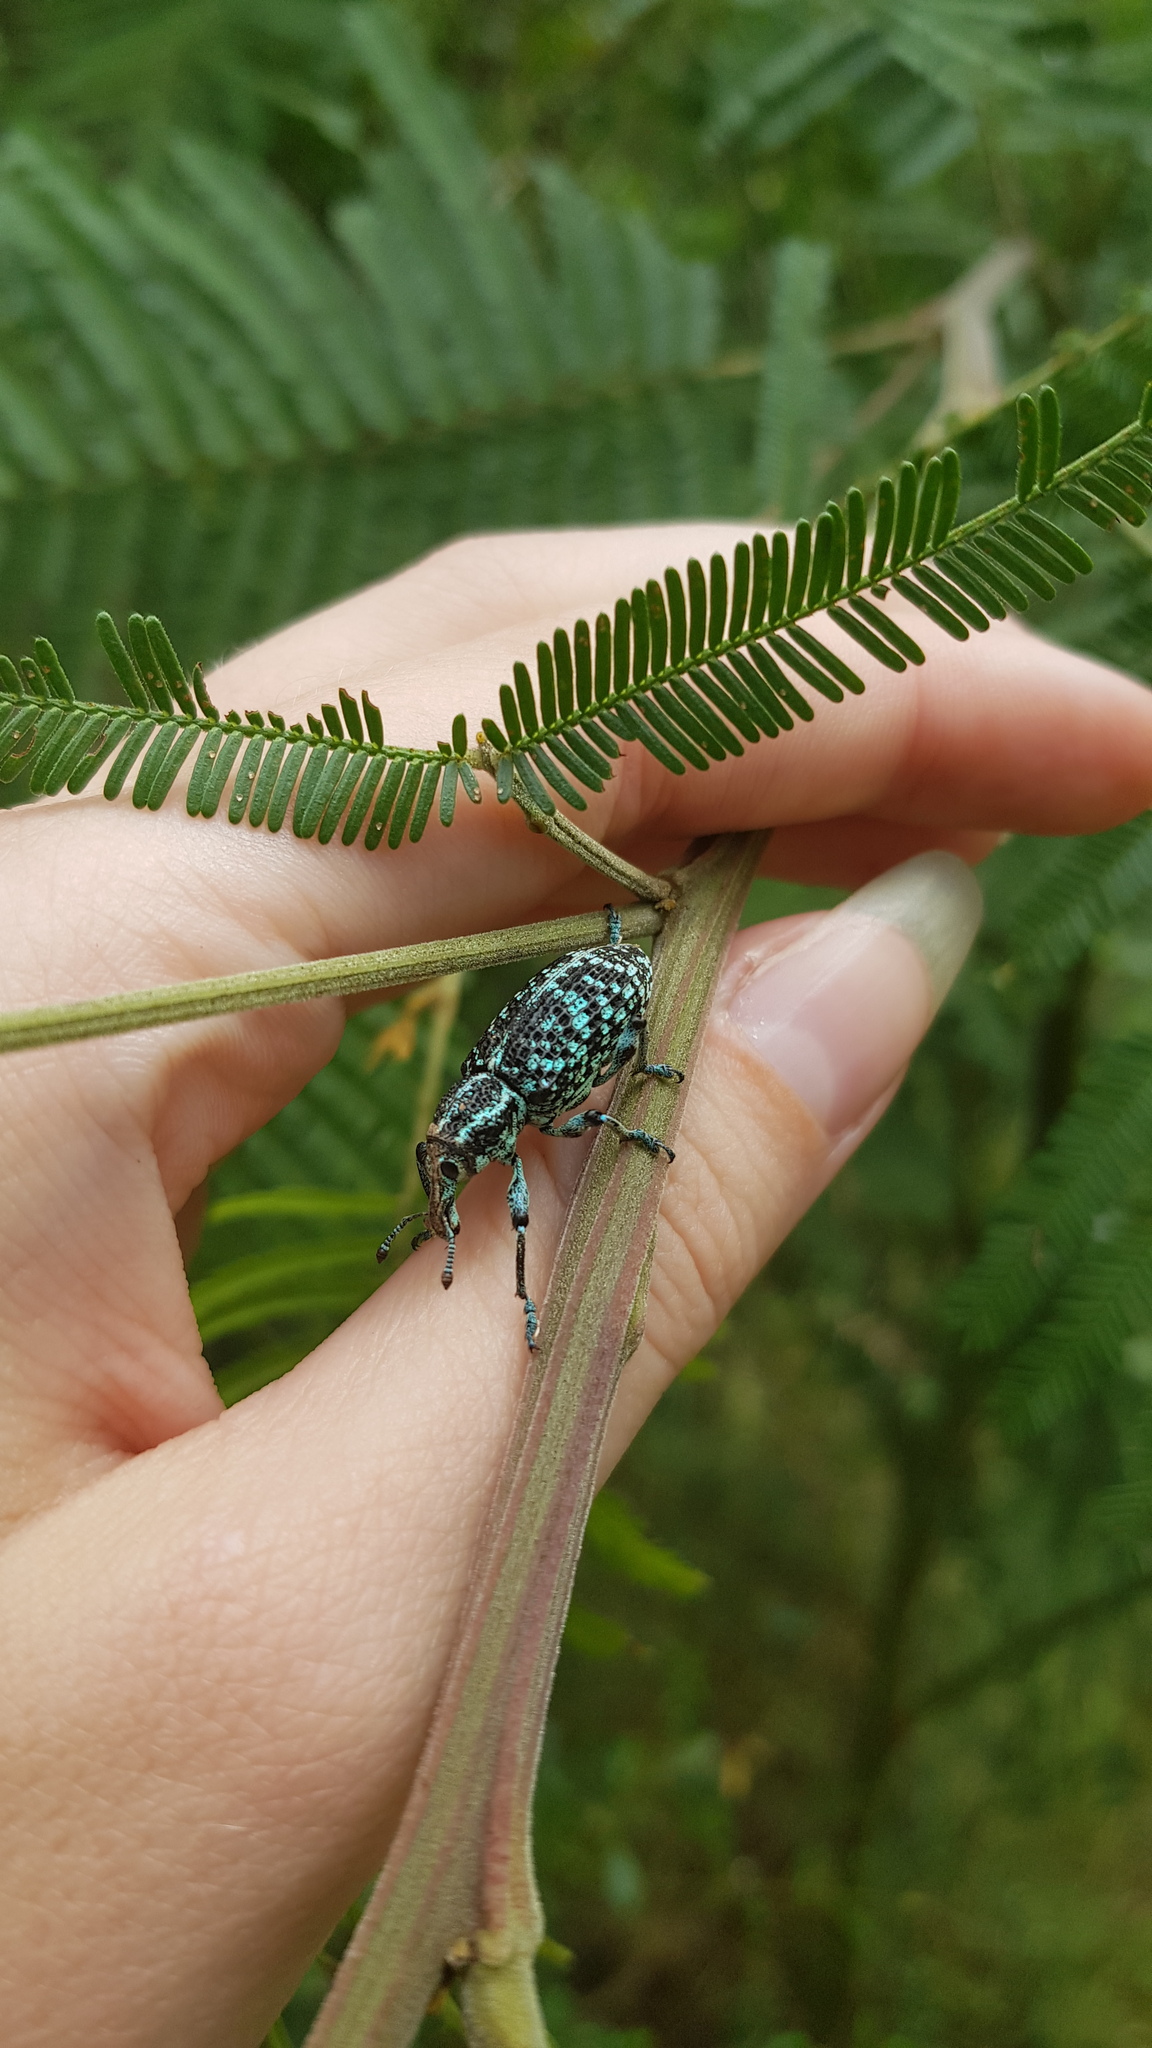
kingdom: Animalia
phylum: Arthropoda
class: Insecta
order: Coleoptera
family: Curculionidae
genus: Chrysolopus
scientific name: Chrysolopus spectabilis
